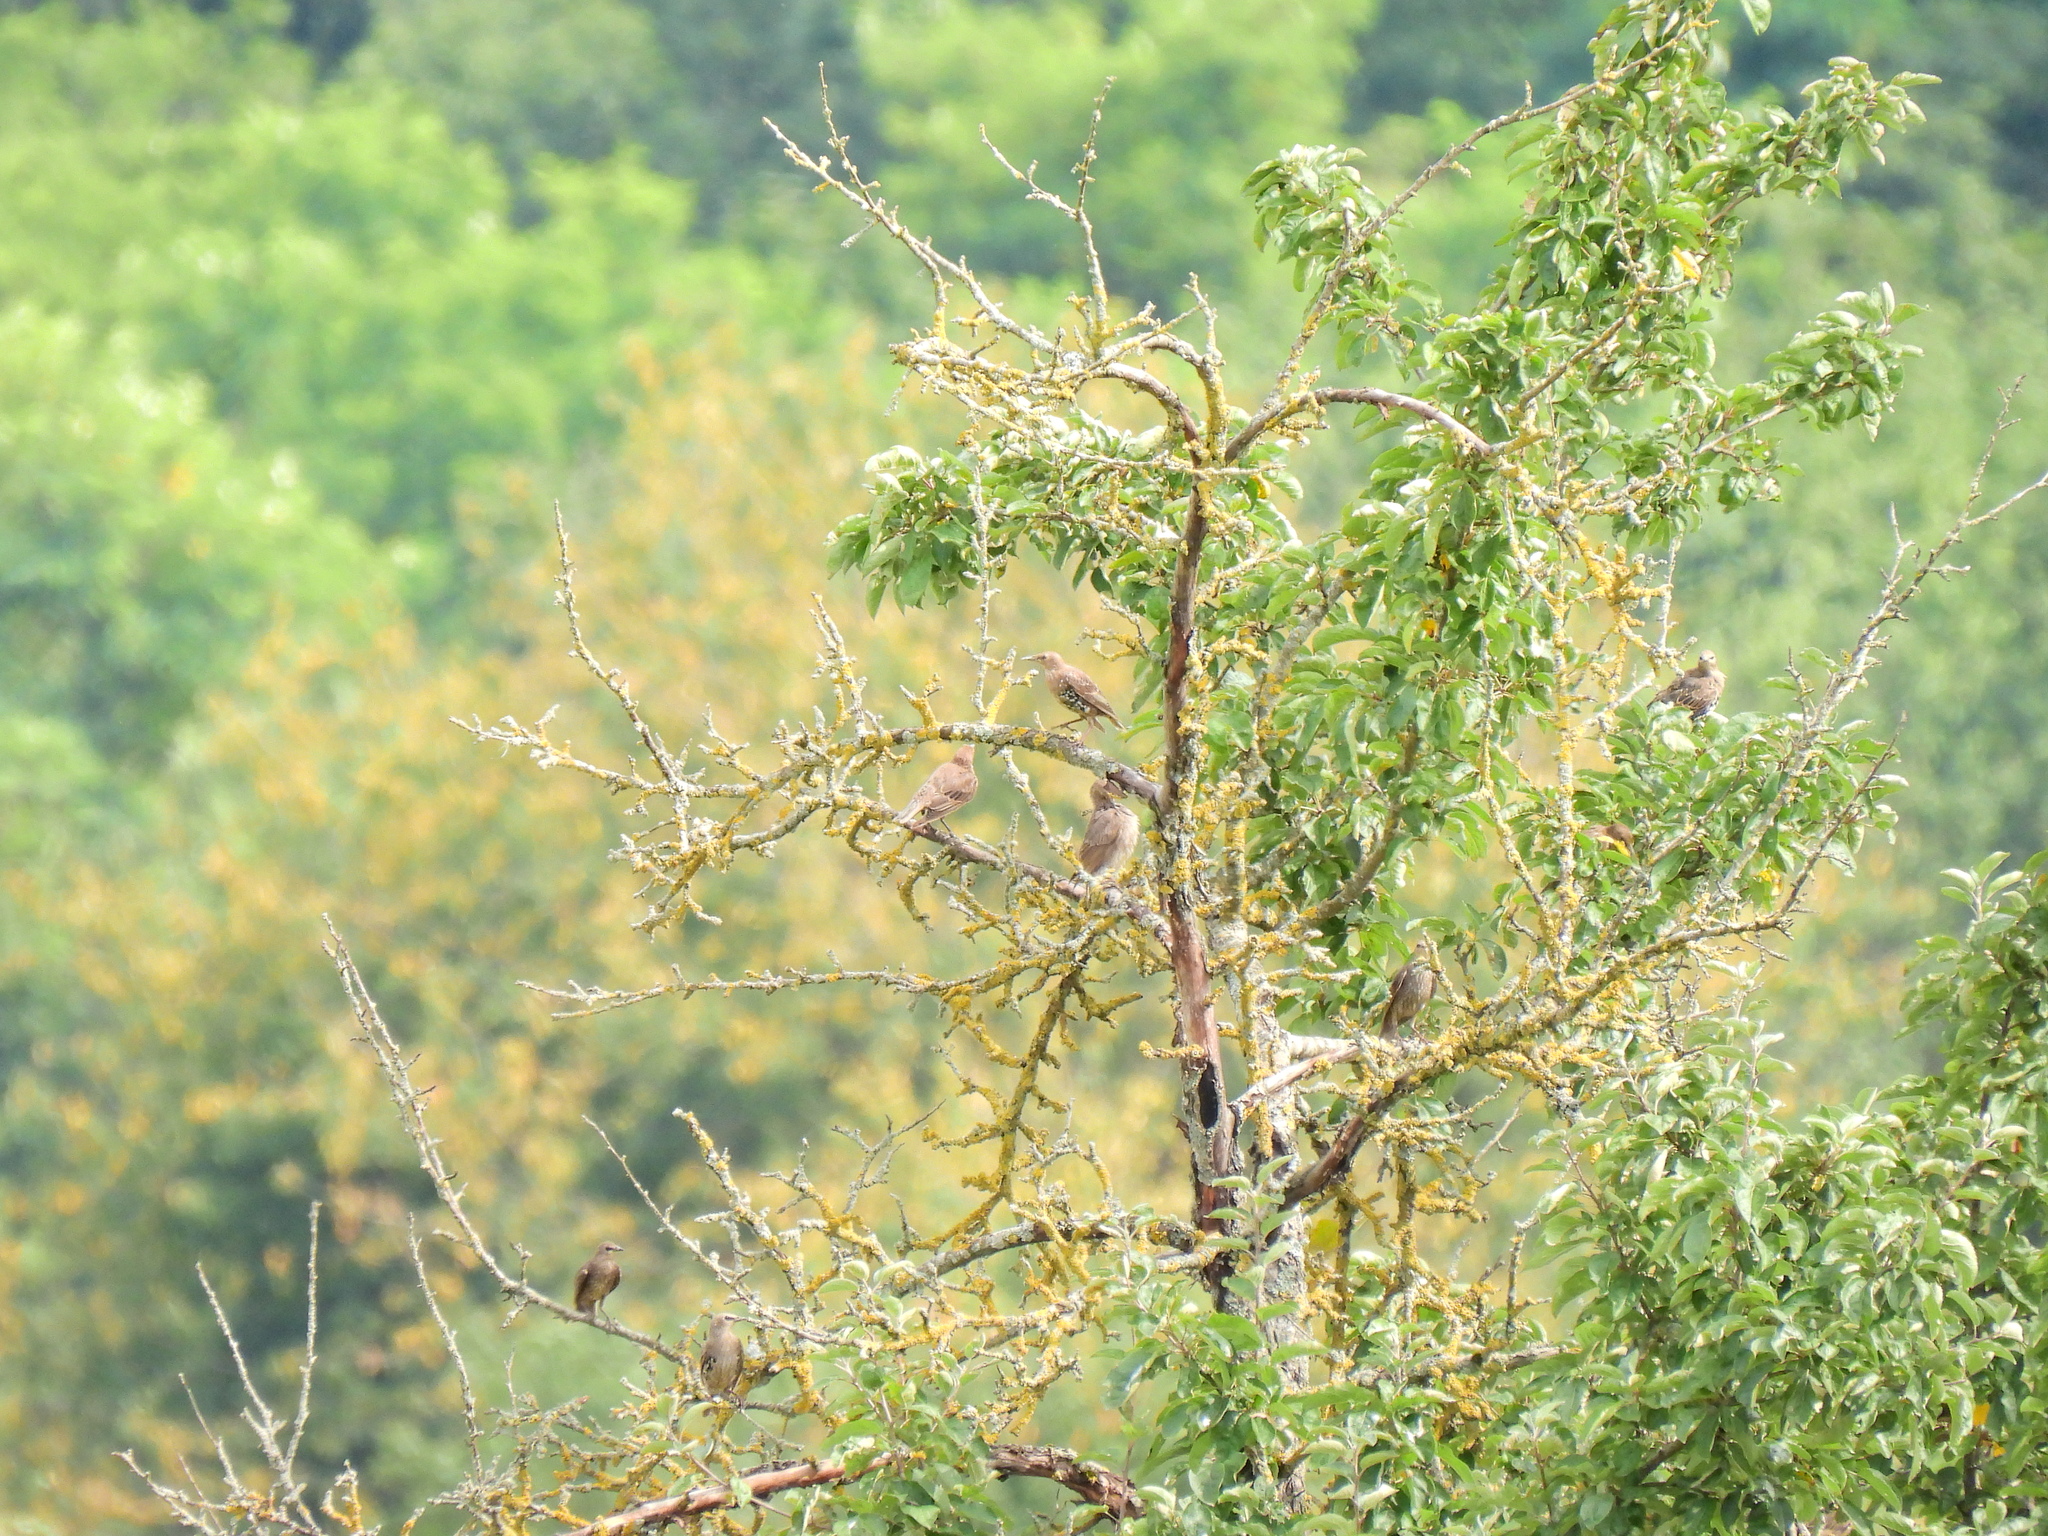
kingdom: Animalia
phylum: Chordata
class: Aves
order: Passeriformes
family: Sturnidae
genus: Sturnus
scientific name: Sturnus vulgaris
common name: Common starling
